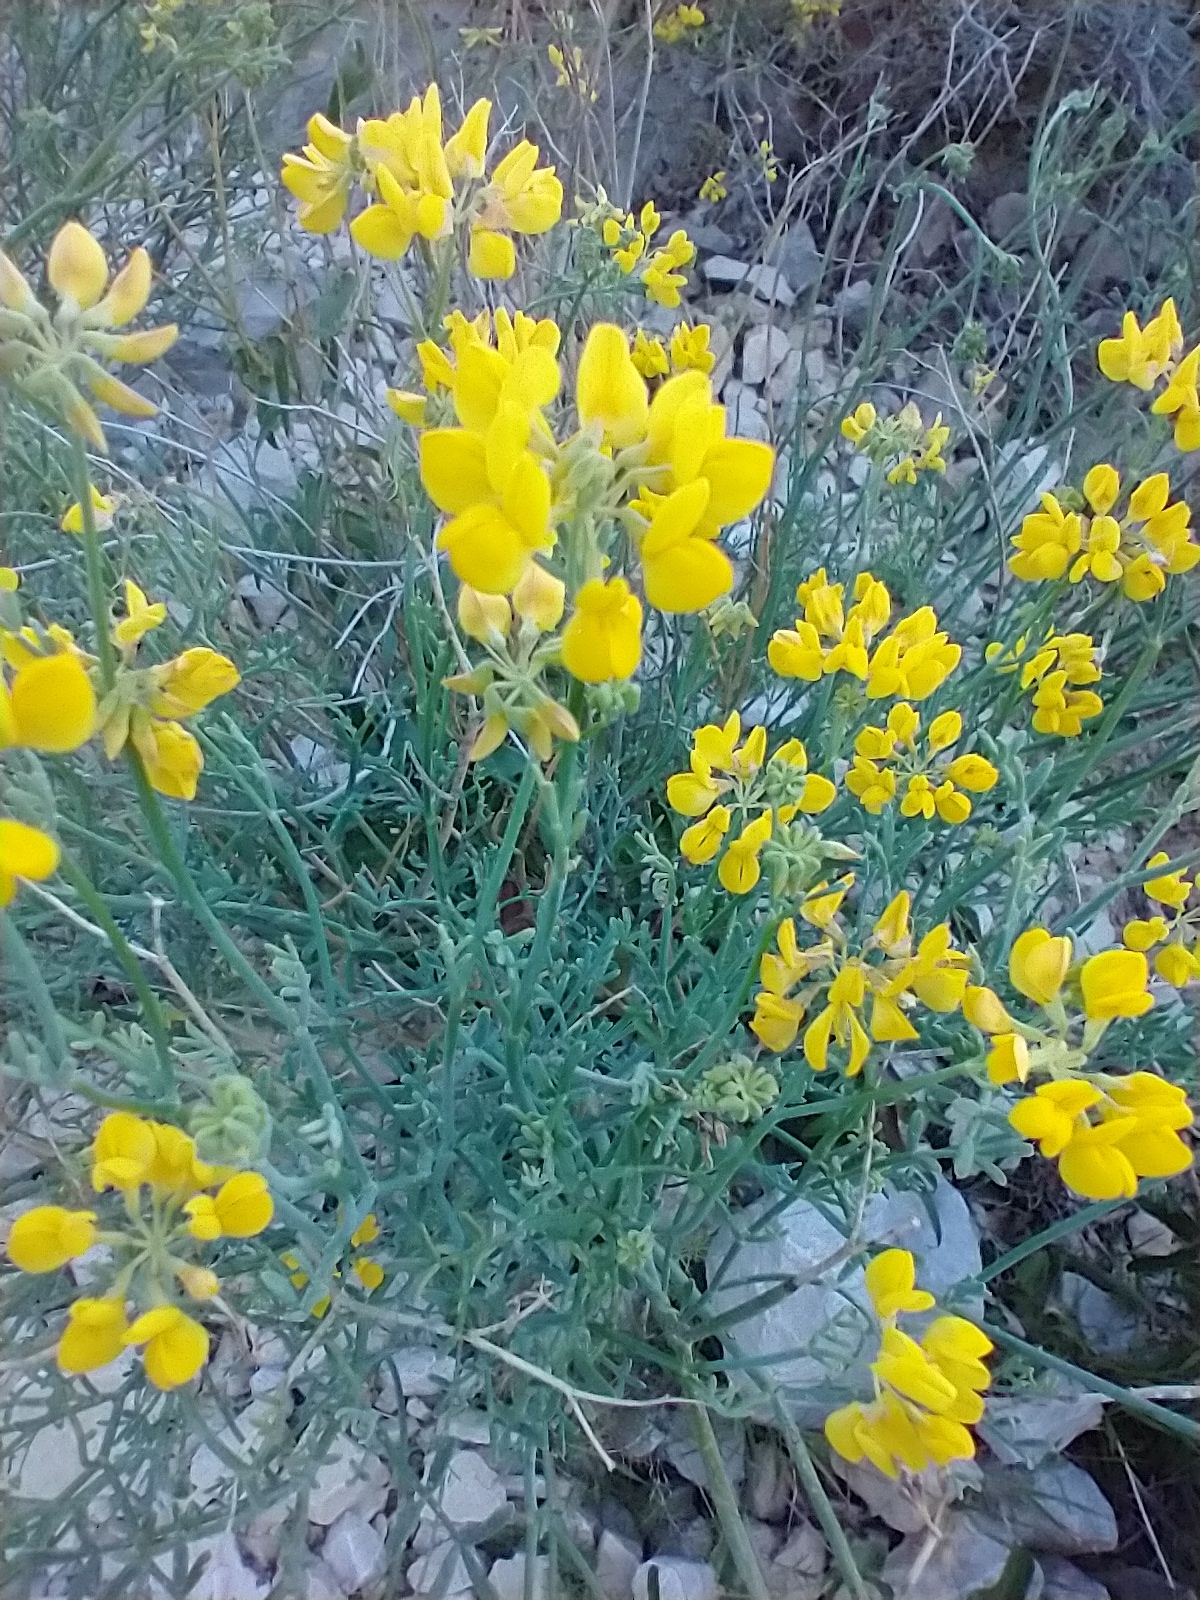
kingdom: Plantae
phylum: Tracheophyta
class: Magnoliopsida
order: Fabales
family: Fabaceae
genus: Coronilla
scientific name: Coronilla juncea
